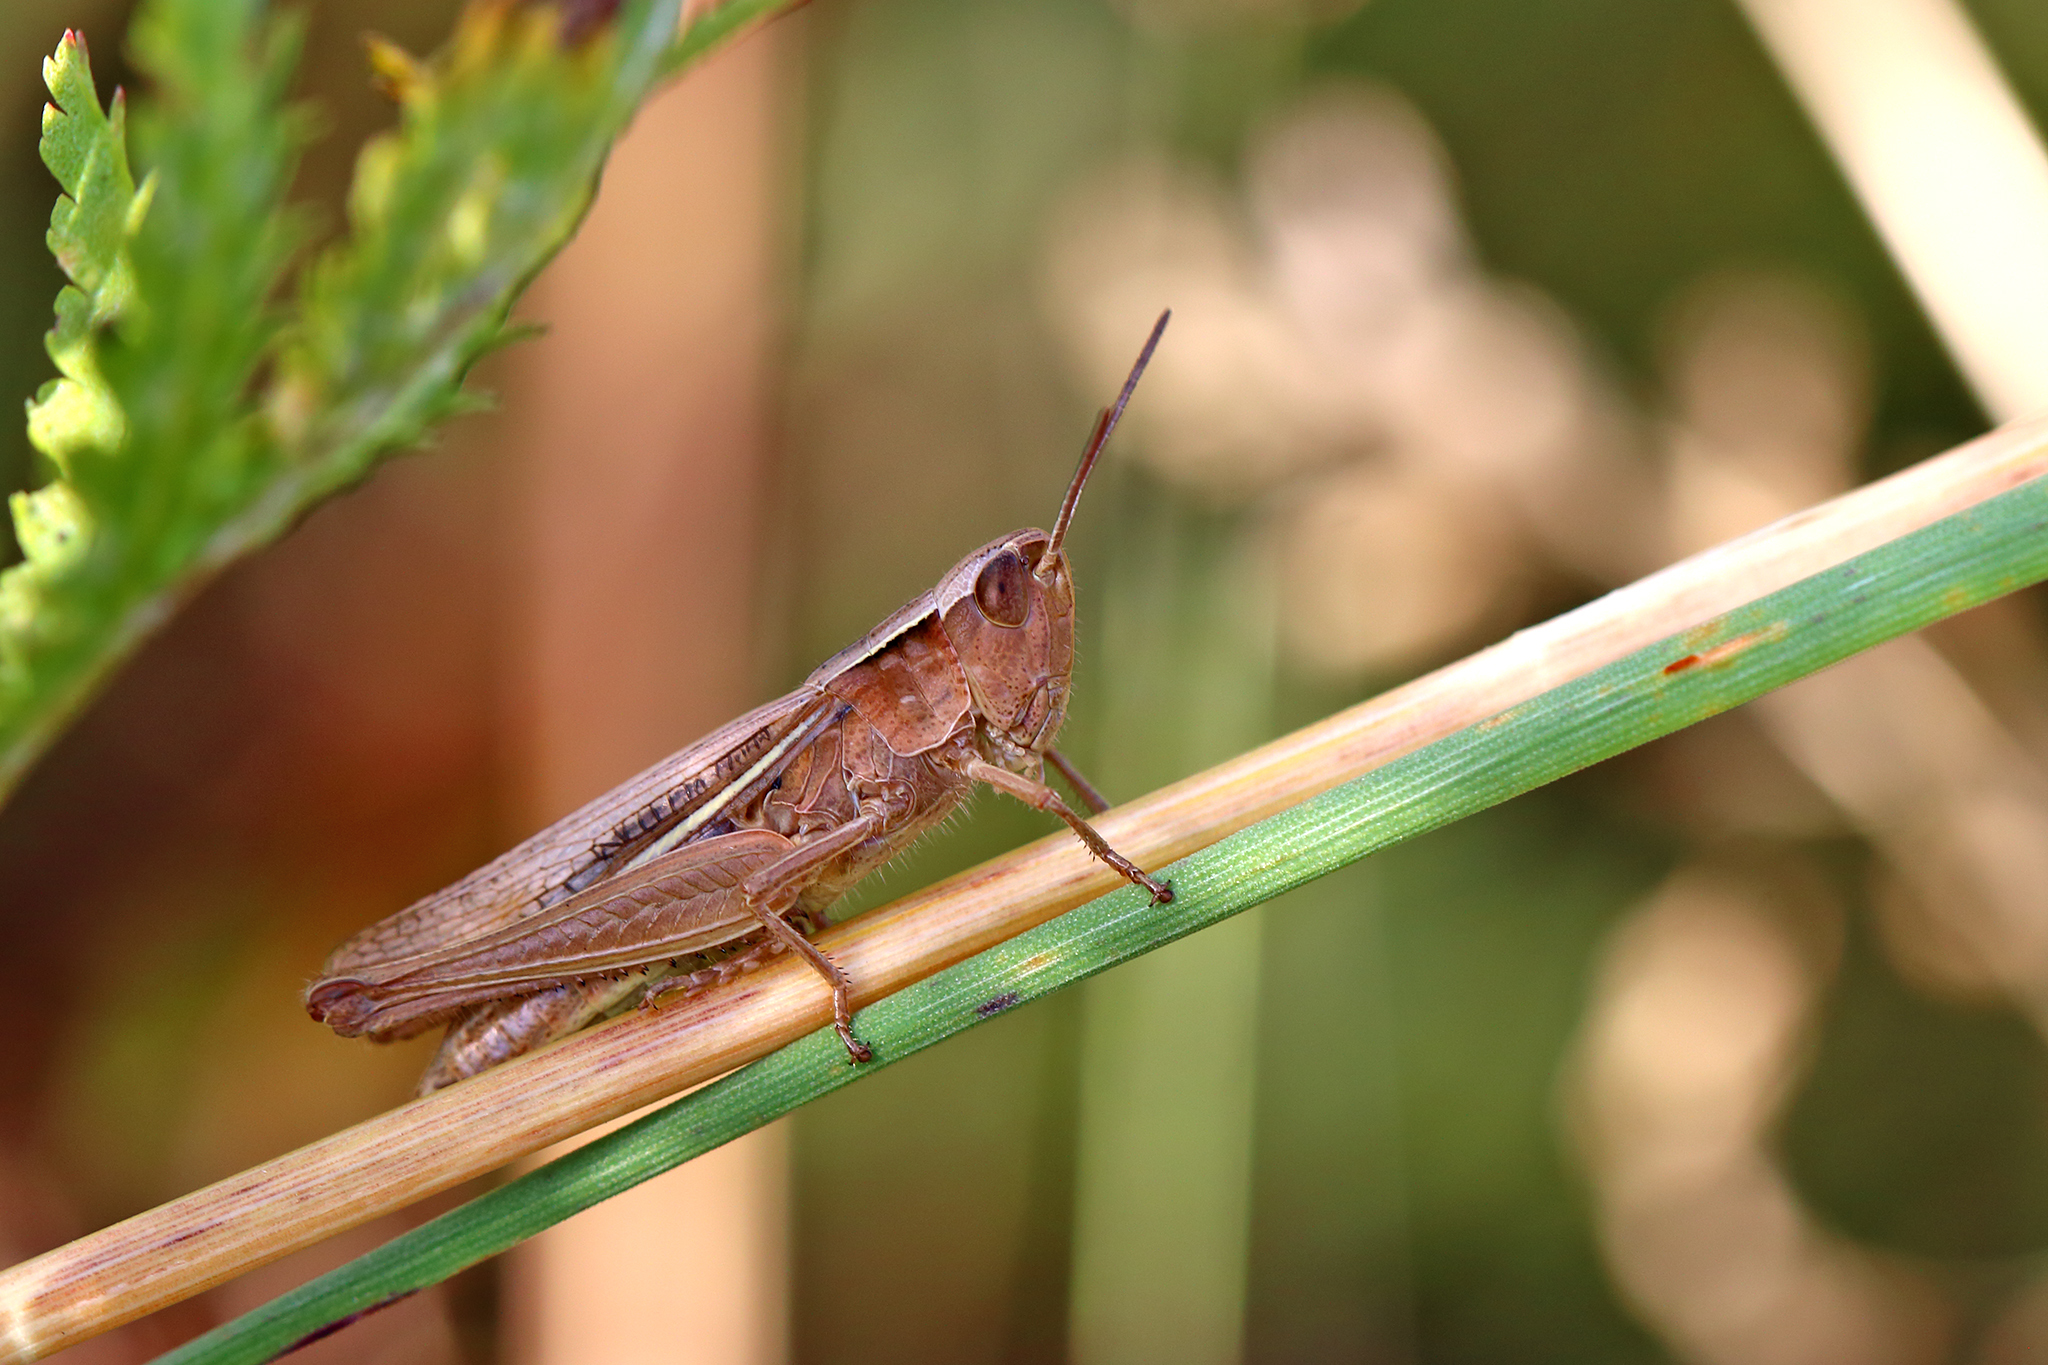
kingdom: Animalia
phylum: Arthropoda
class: Insecta
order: Orthoptera
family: Acrididae
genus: Chorthippus
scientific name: Chorthippus albomarginatus
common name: Lesser marsh grasshopper
